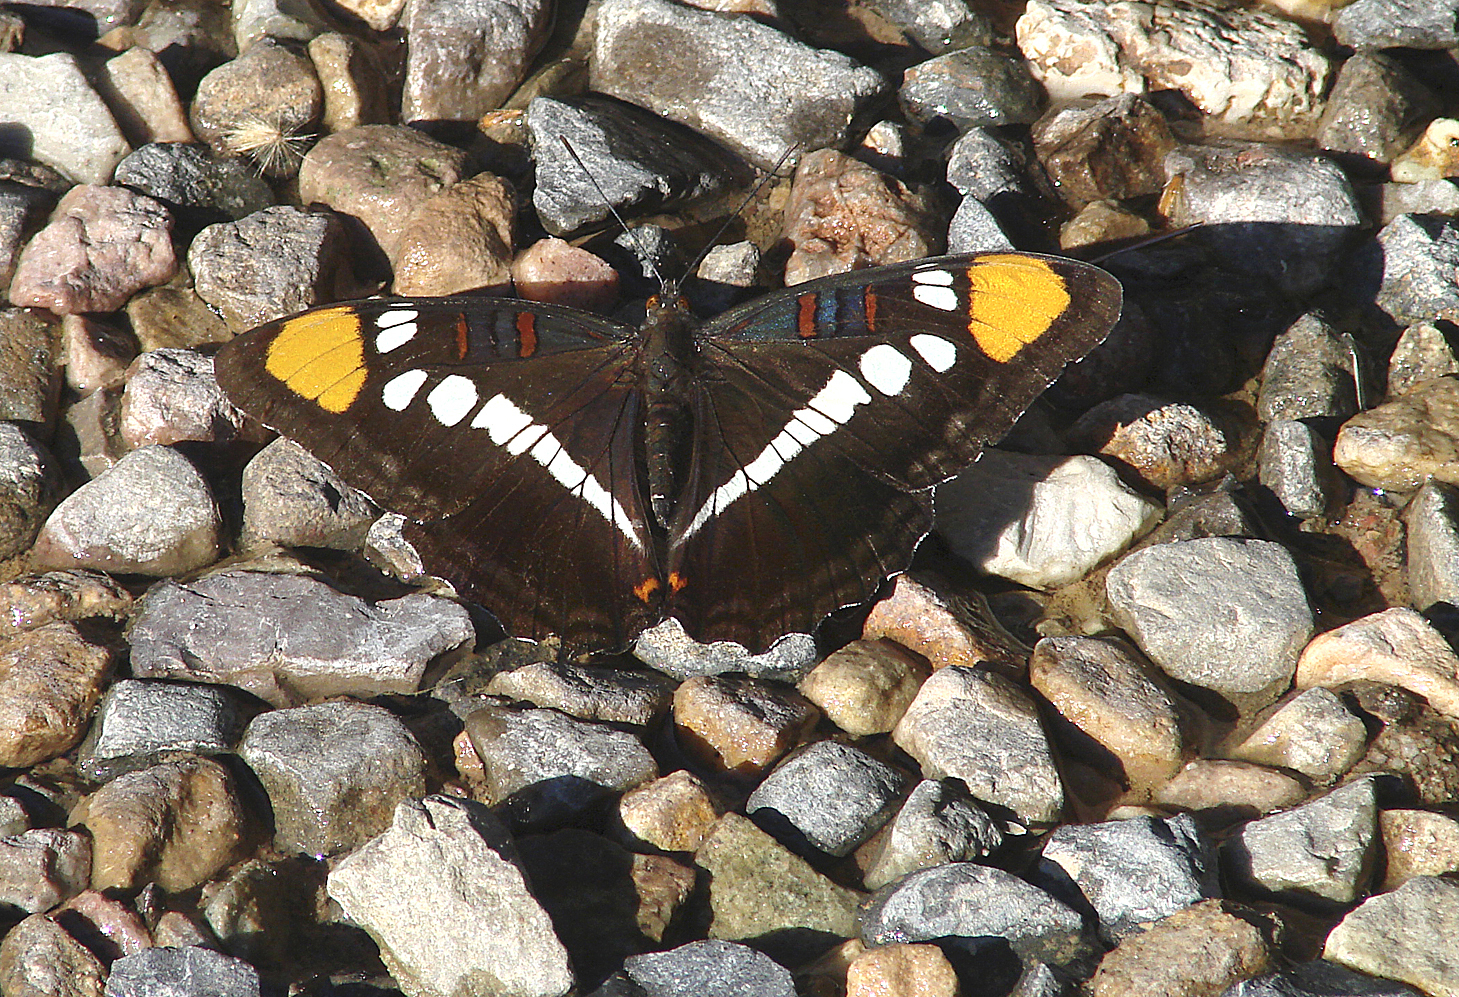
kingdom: Animalia
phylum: Arthropoda
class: Insecta
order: Lepidoptera
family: Nymphalidae
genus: Limenitis
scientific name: Limenitis bredowii
